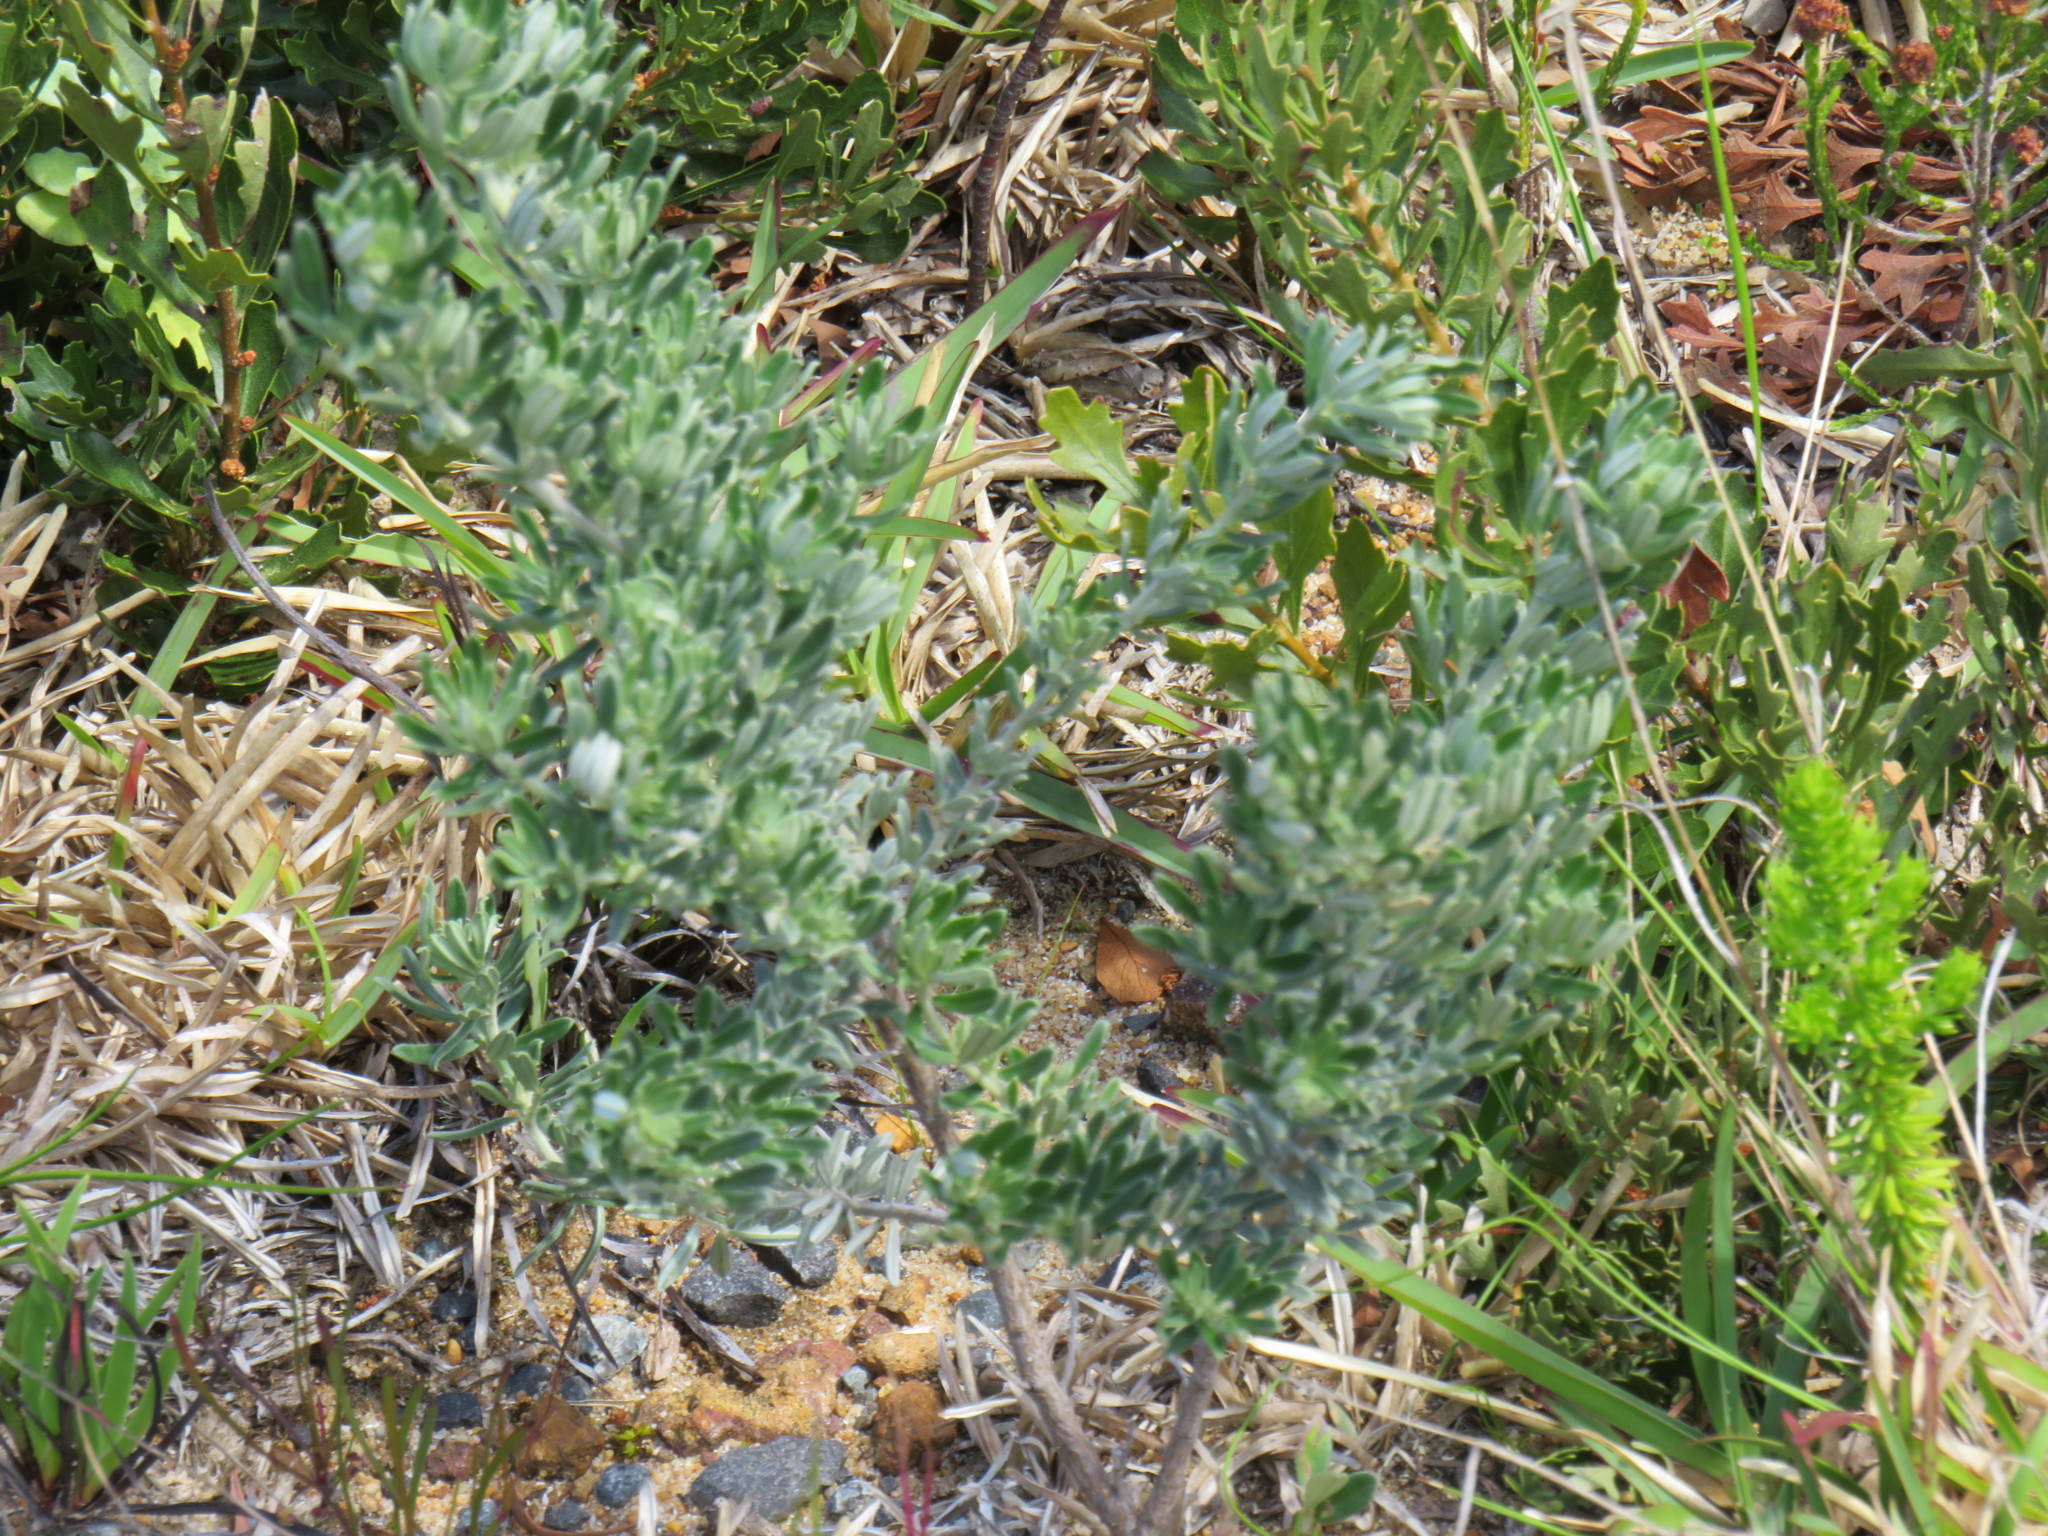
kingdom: Plantae
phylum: Tracheophyta
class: Magnoliopsida
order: Fabales
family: Fabaceae
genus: Indigofera
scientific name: Indigofera brachystachya
